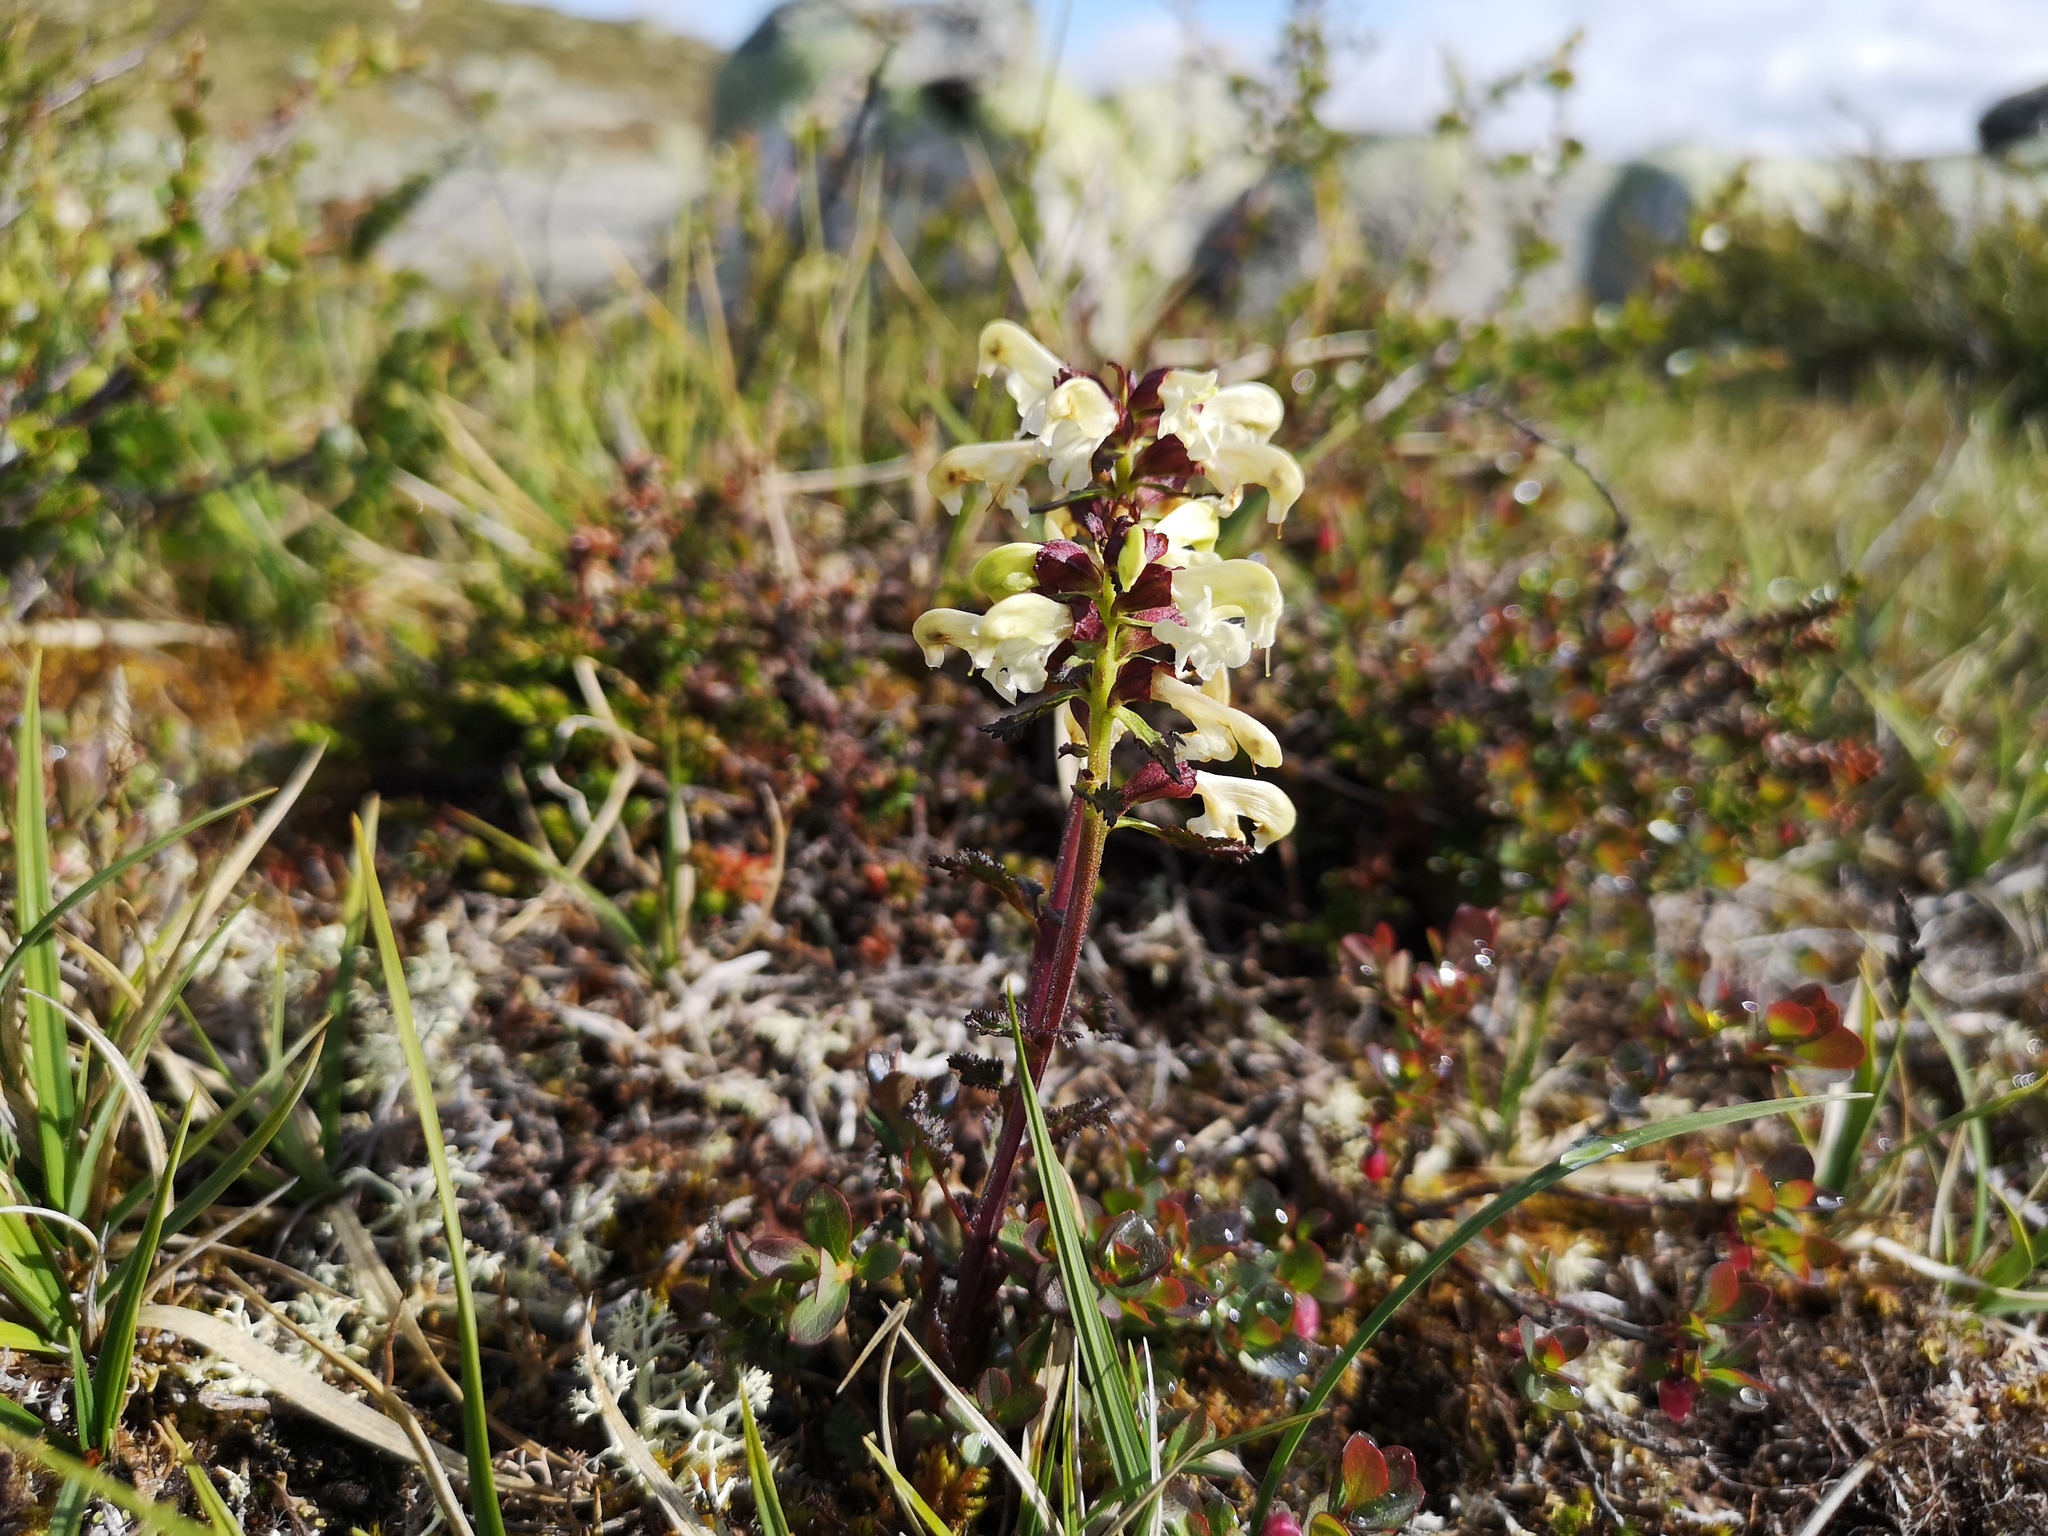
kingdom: Plantae
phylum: Tracheophyta
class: Magnoliopsida
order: Lamiales
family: Orobanchaceae
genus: Pedicularis
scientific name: Pedicularis lapponica
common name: Lapland lousewort
